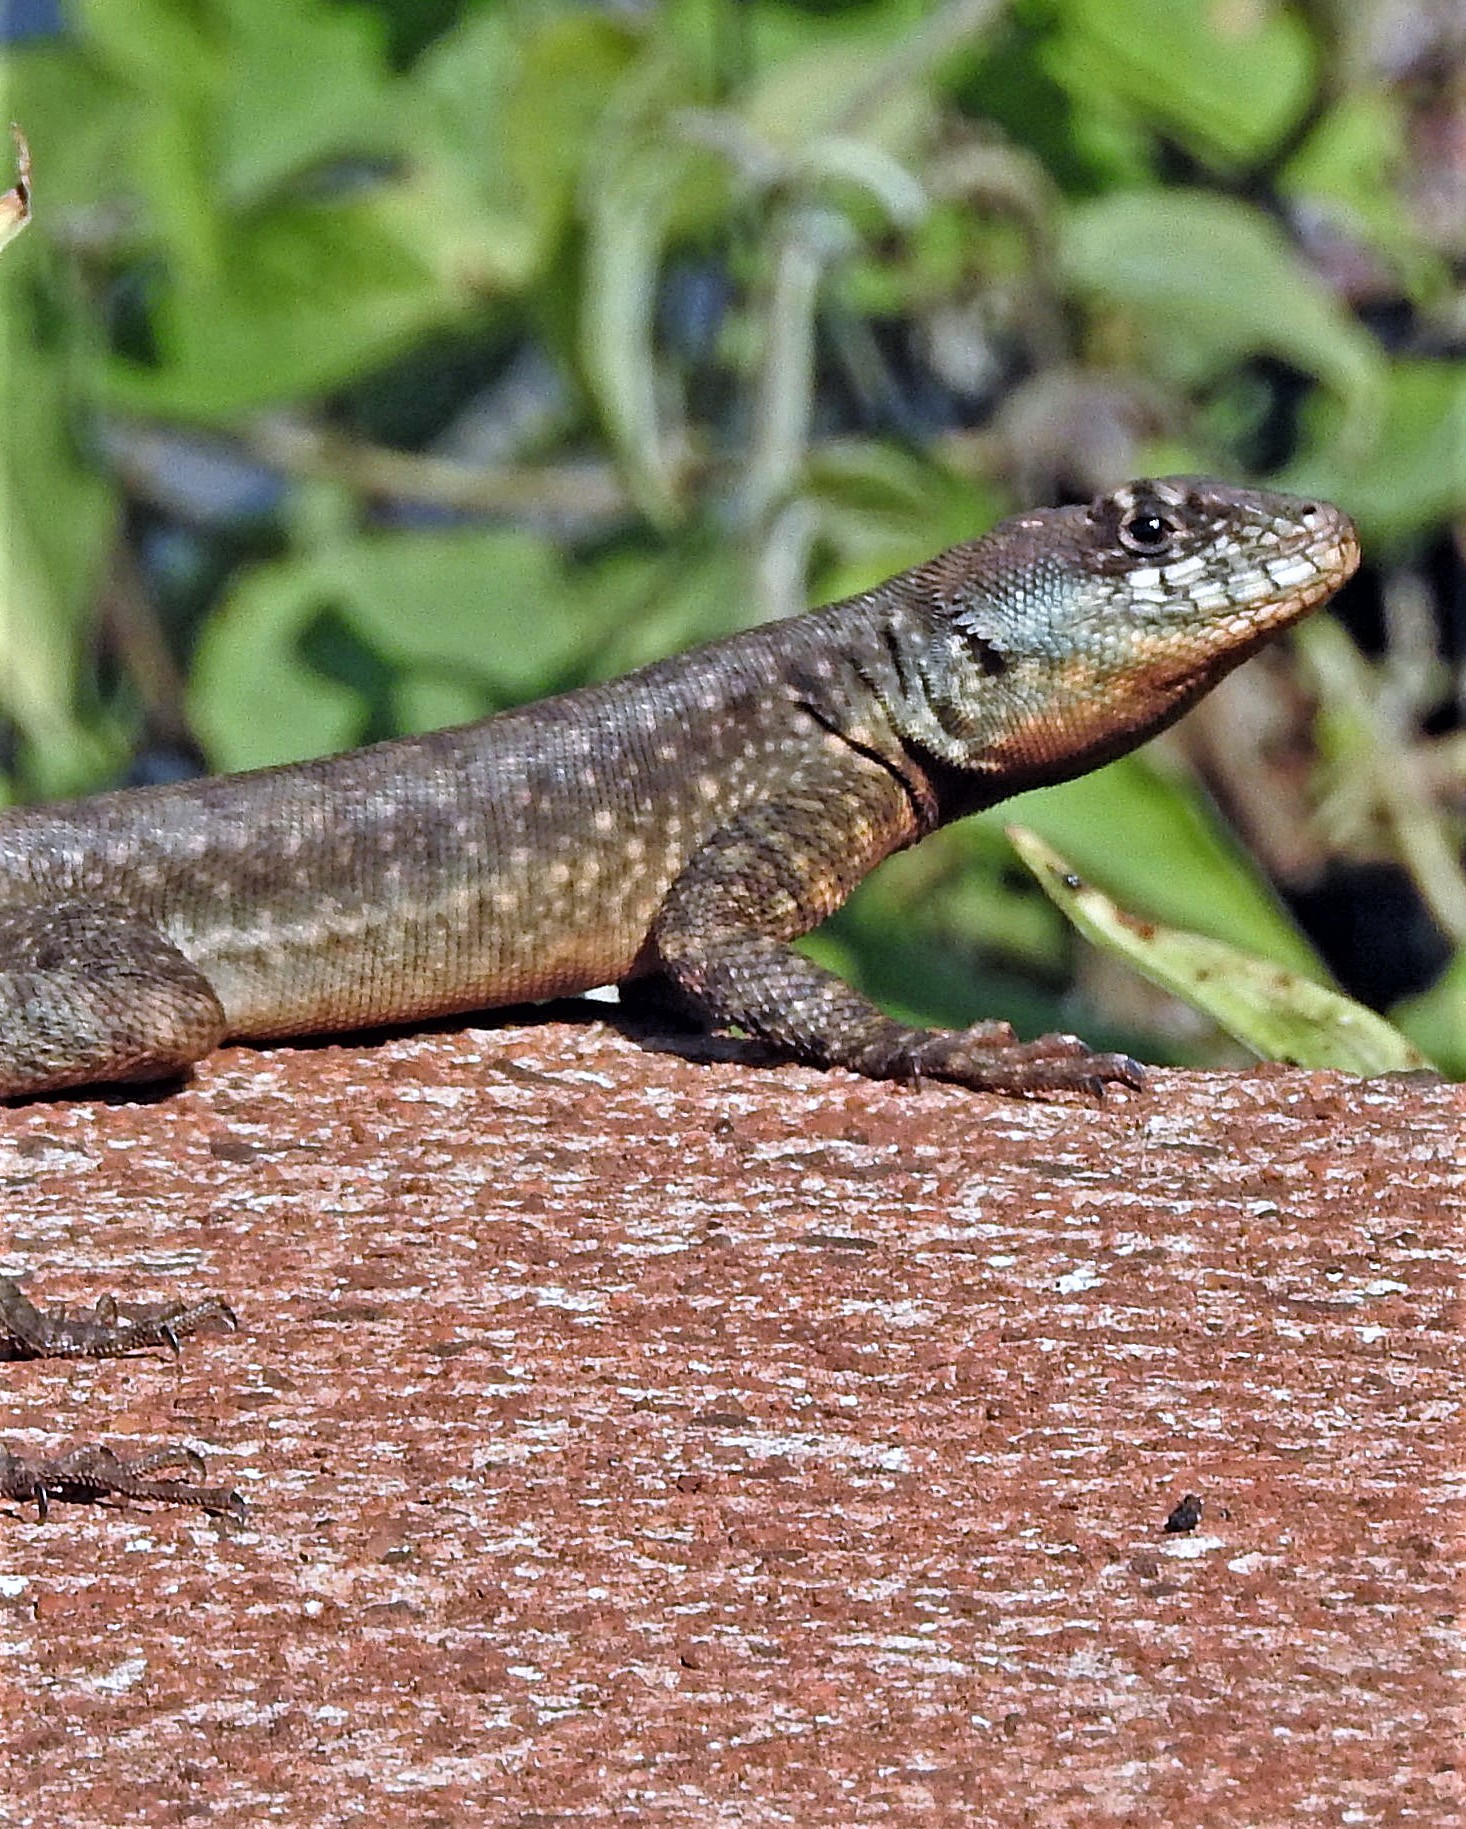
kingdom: Animalia
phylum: Chordata
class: Squamata
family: Tropiduridae
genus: Tropidurus
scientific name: Tropidurus catalanensis
